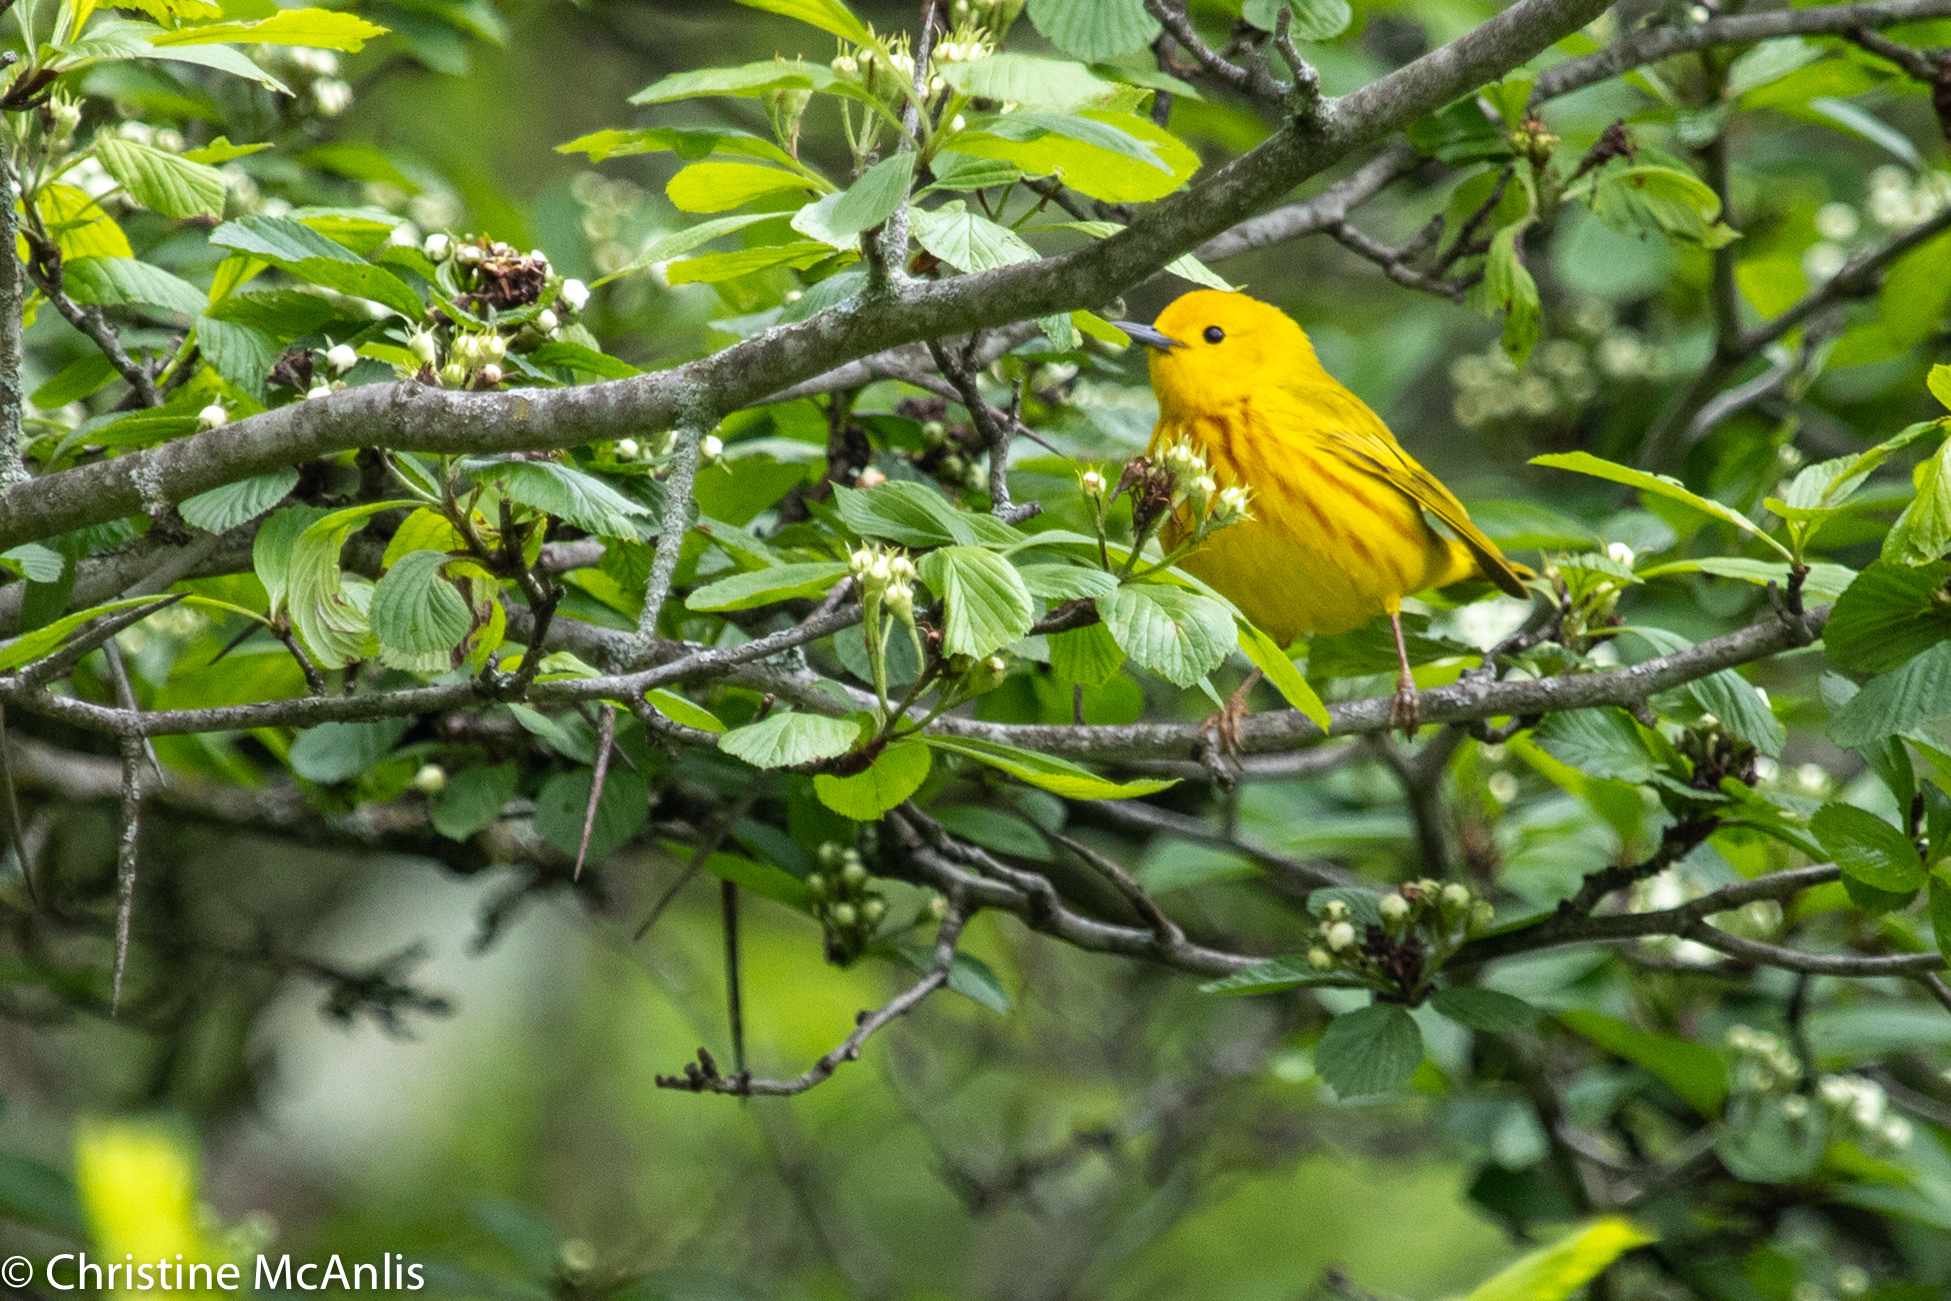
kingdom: Animalia
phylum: Chordata
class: Aves
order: Passeriformes
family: Parulidae
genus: Setophaga
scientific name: Setophaga petechia
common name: Yellow warbler
